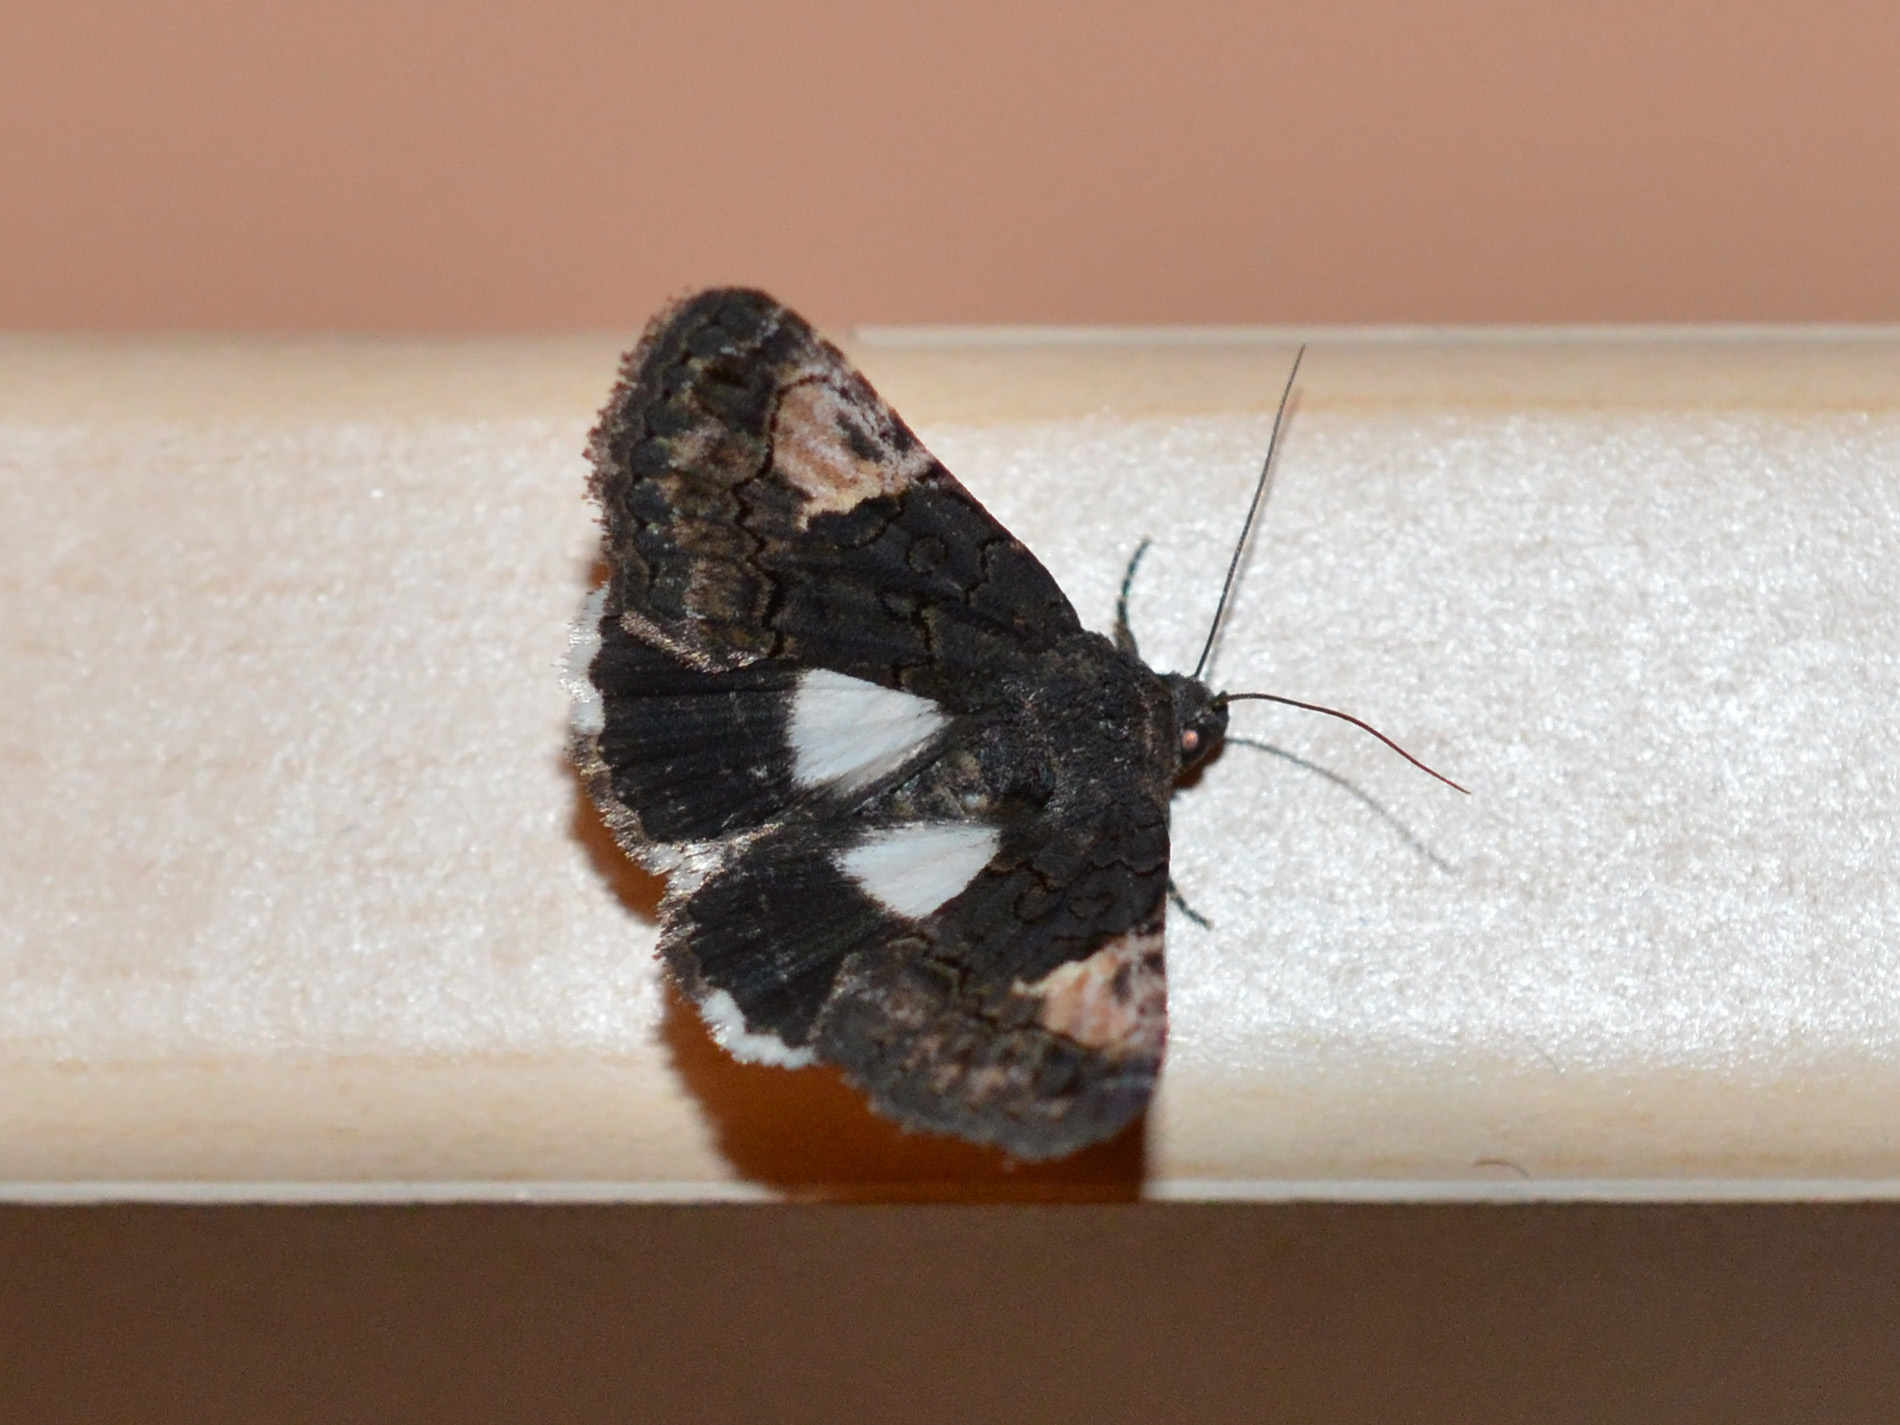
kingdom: Animalia
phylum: Arthropoda
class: Insecta
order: Lepidoptera
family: Noctuidae
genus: Aedia
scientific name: Aedia funesta
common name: The druid
